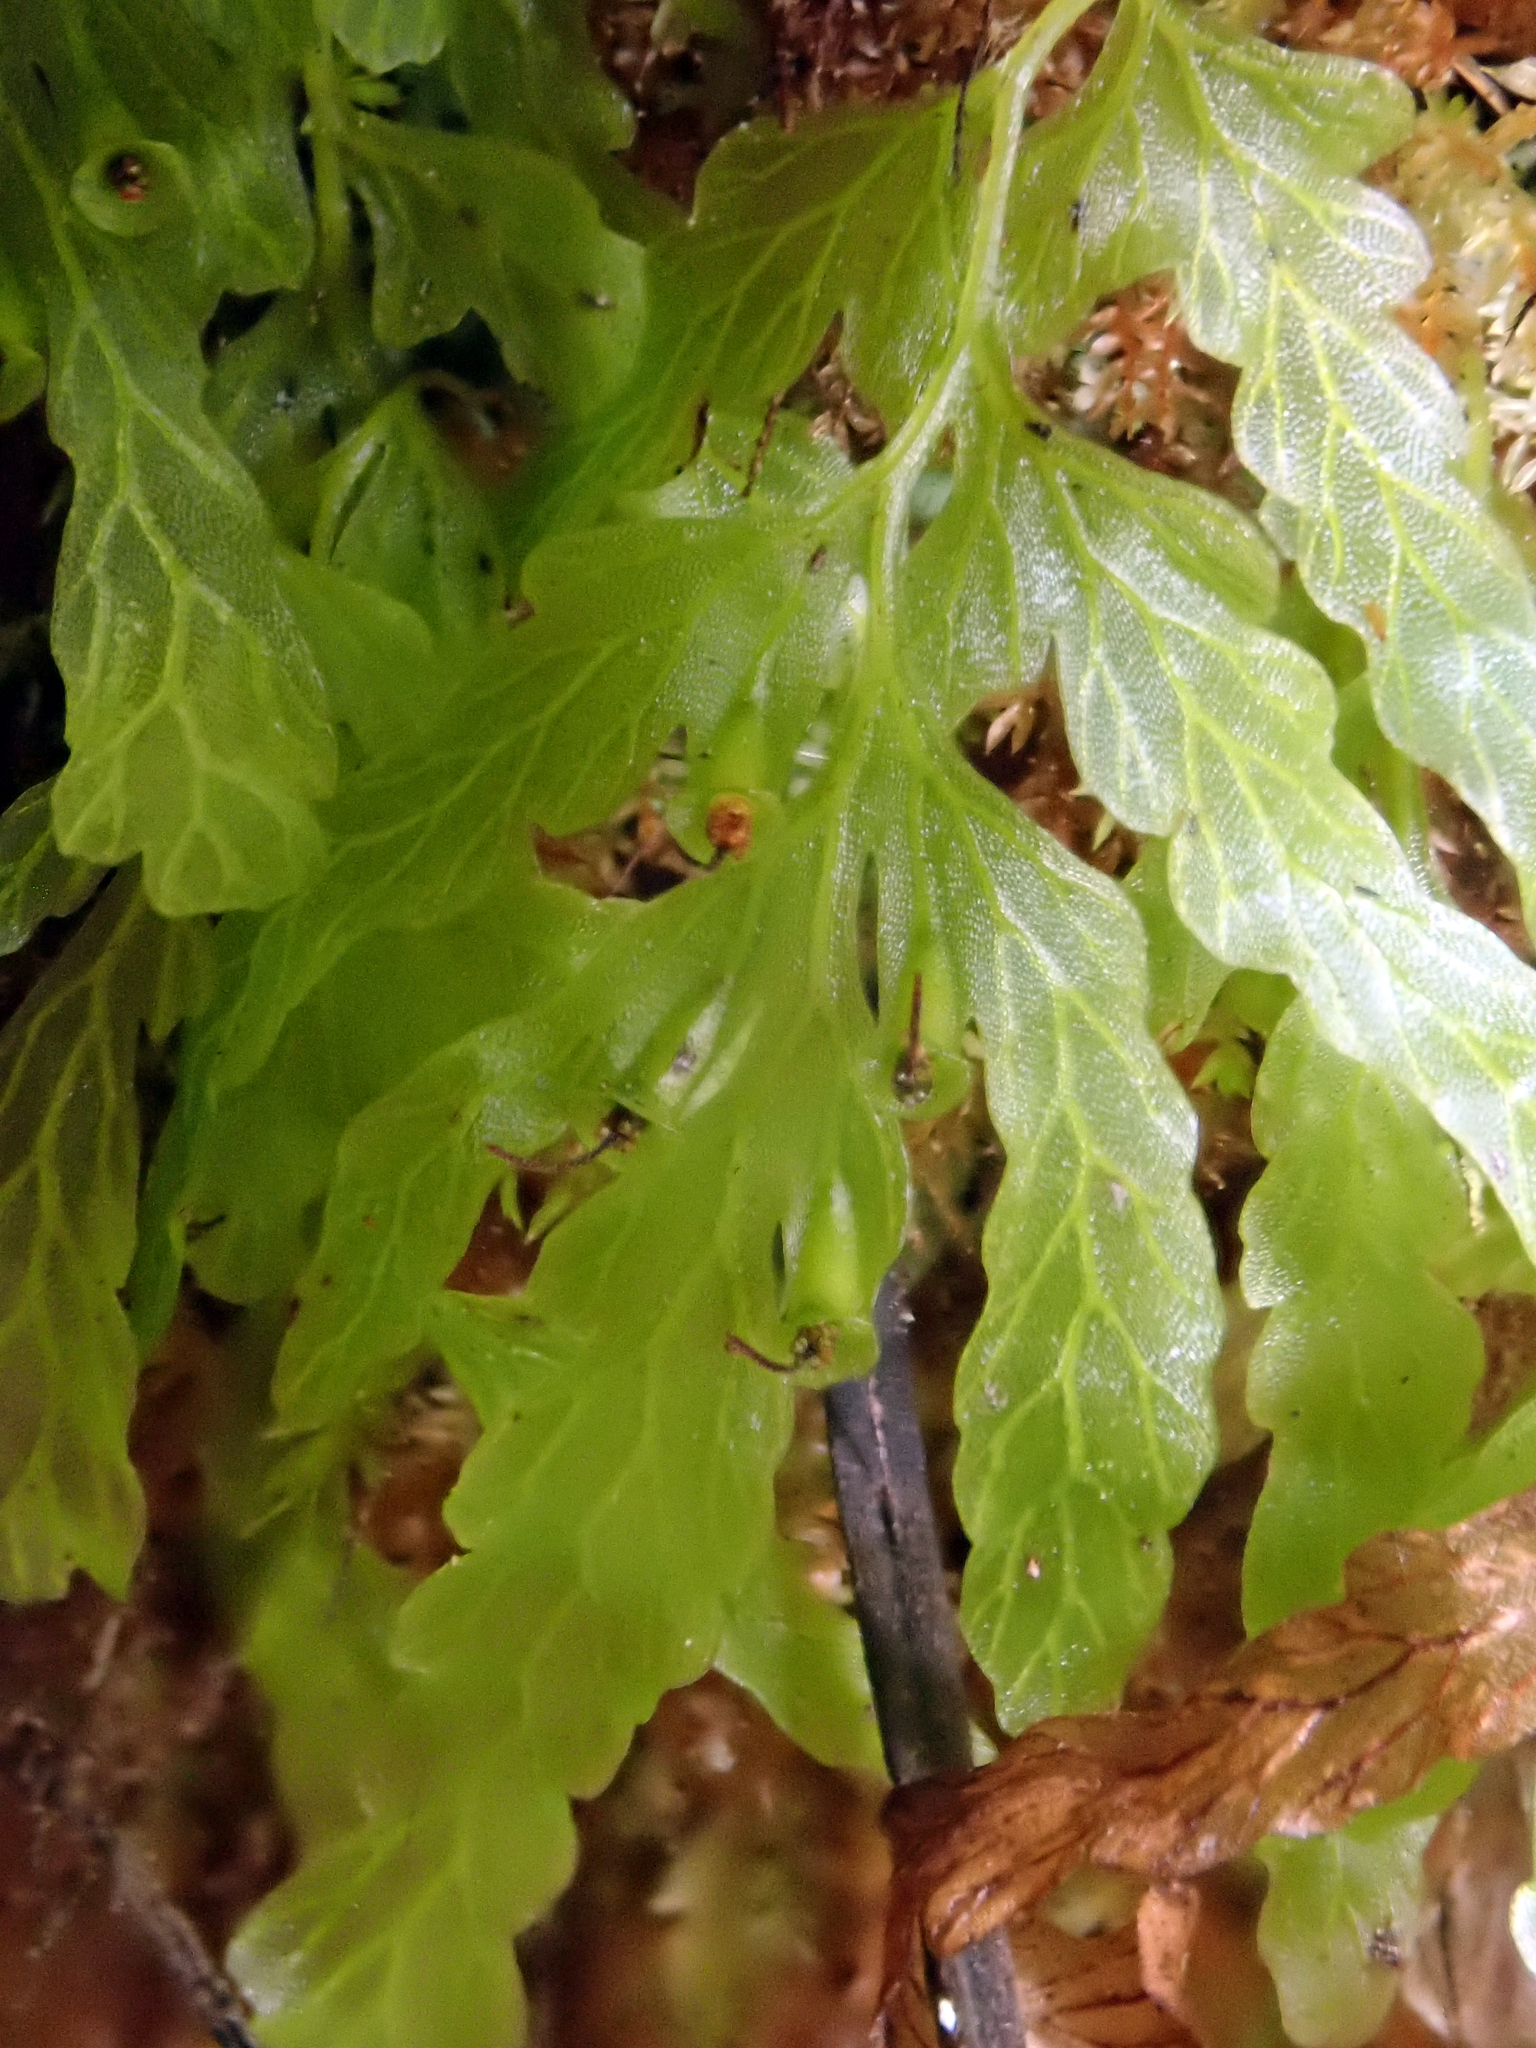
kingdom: Plantae
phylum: Tracheophyta
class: Polypodiopsida
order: Hymenophyllales
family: Hymenophyllaceae
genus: Polyphlebium
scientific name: Polyphlebium venosum
